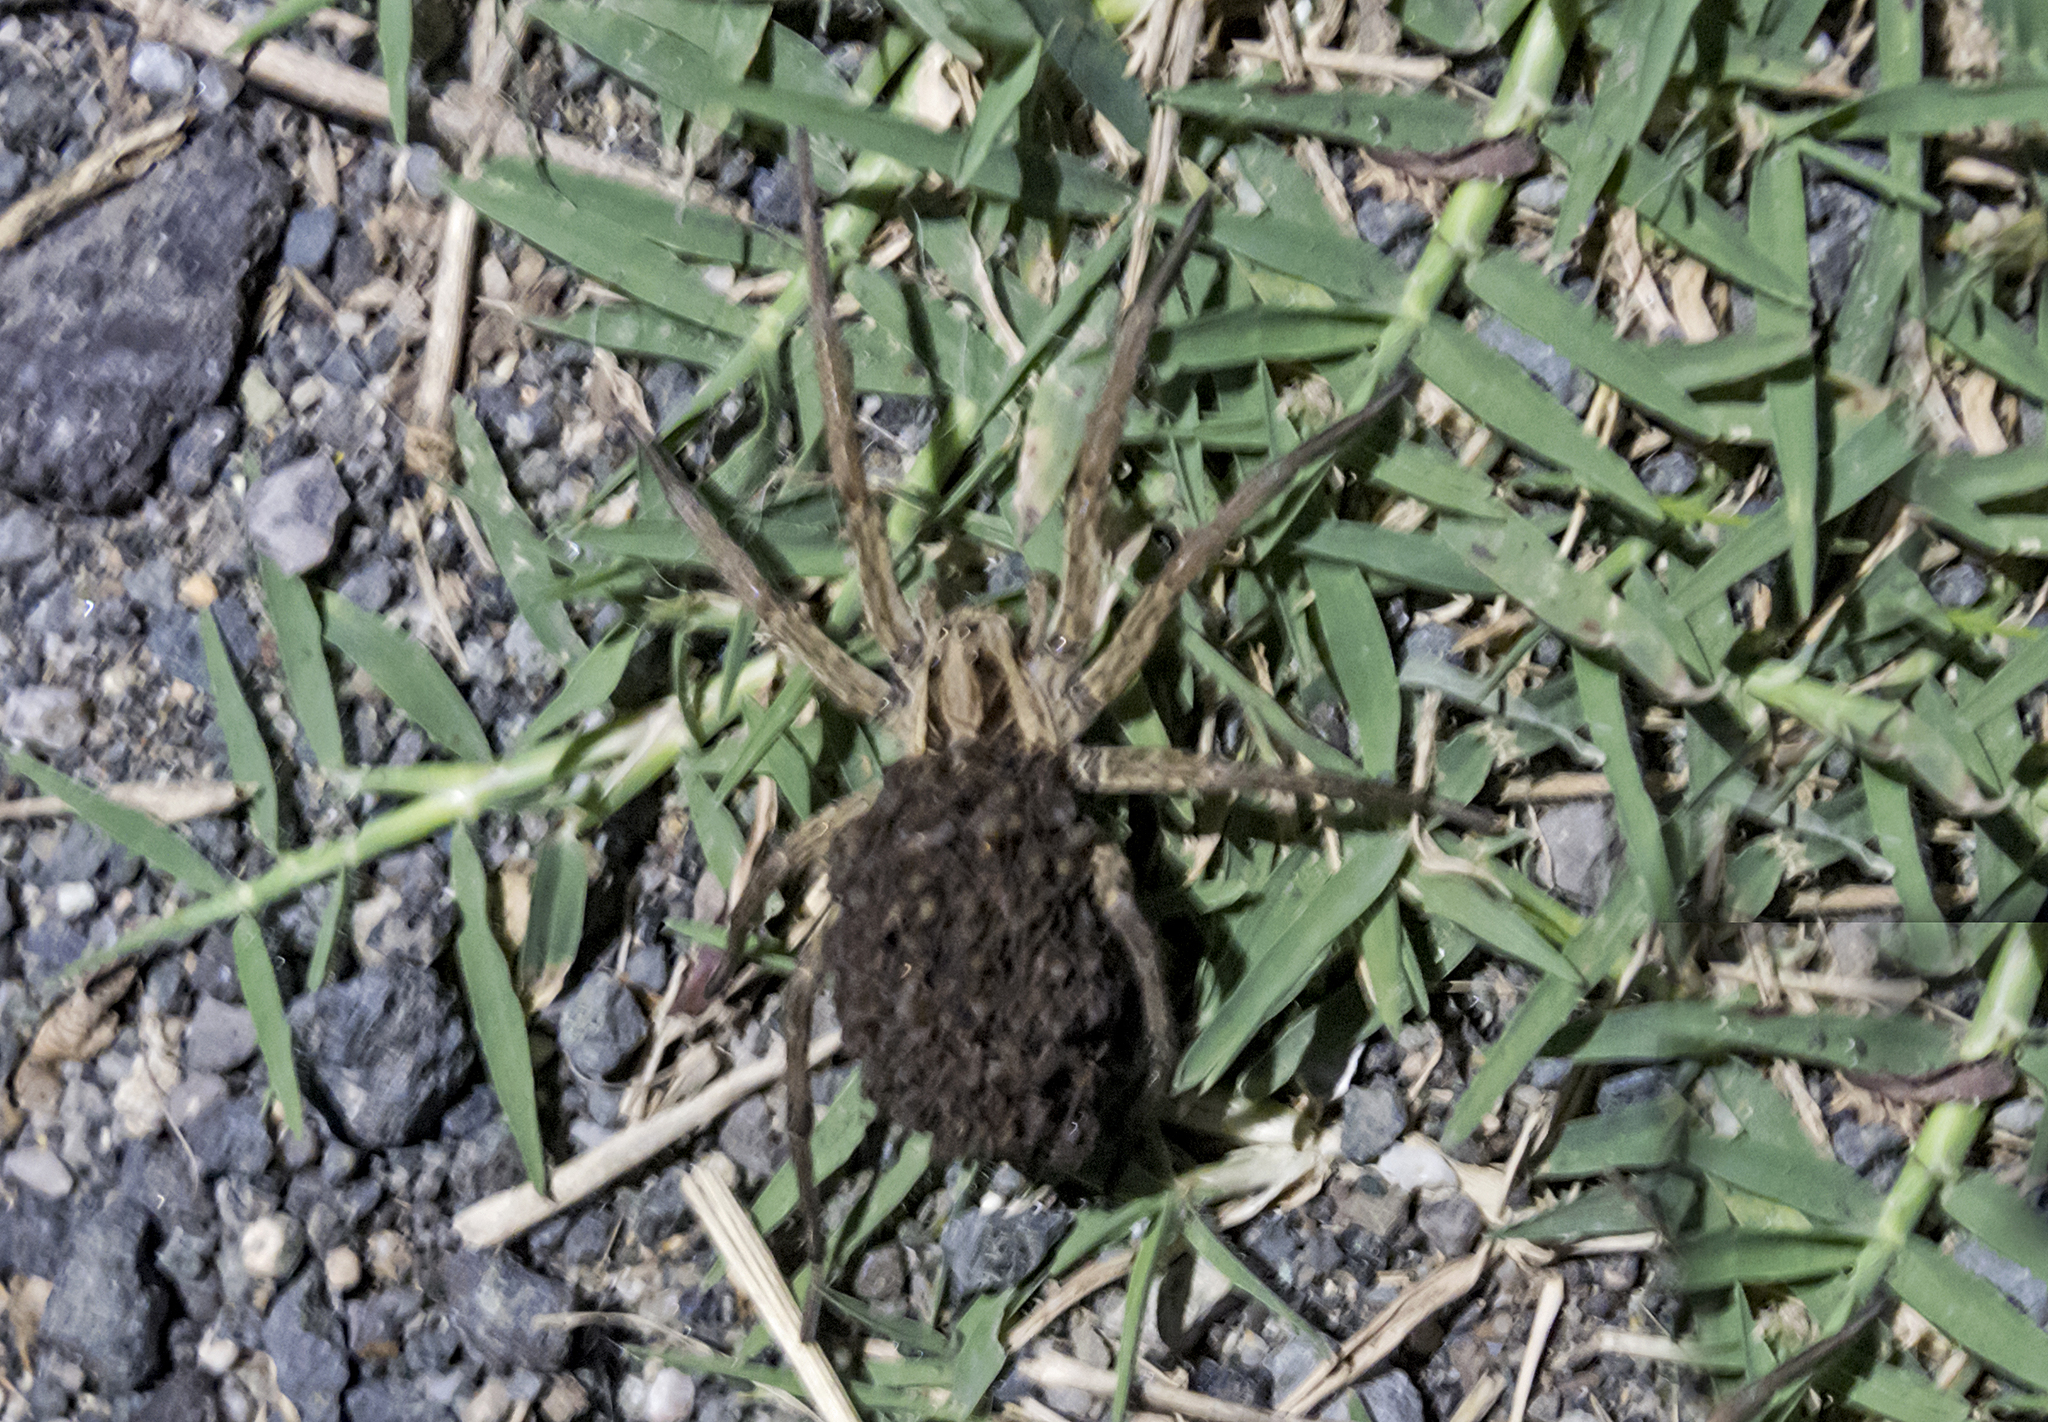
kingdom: Animalia
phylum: Arthropoda
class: Arachnida
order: Araneae
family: Lycosidae
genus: Hogna
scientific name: Hogna radiata
